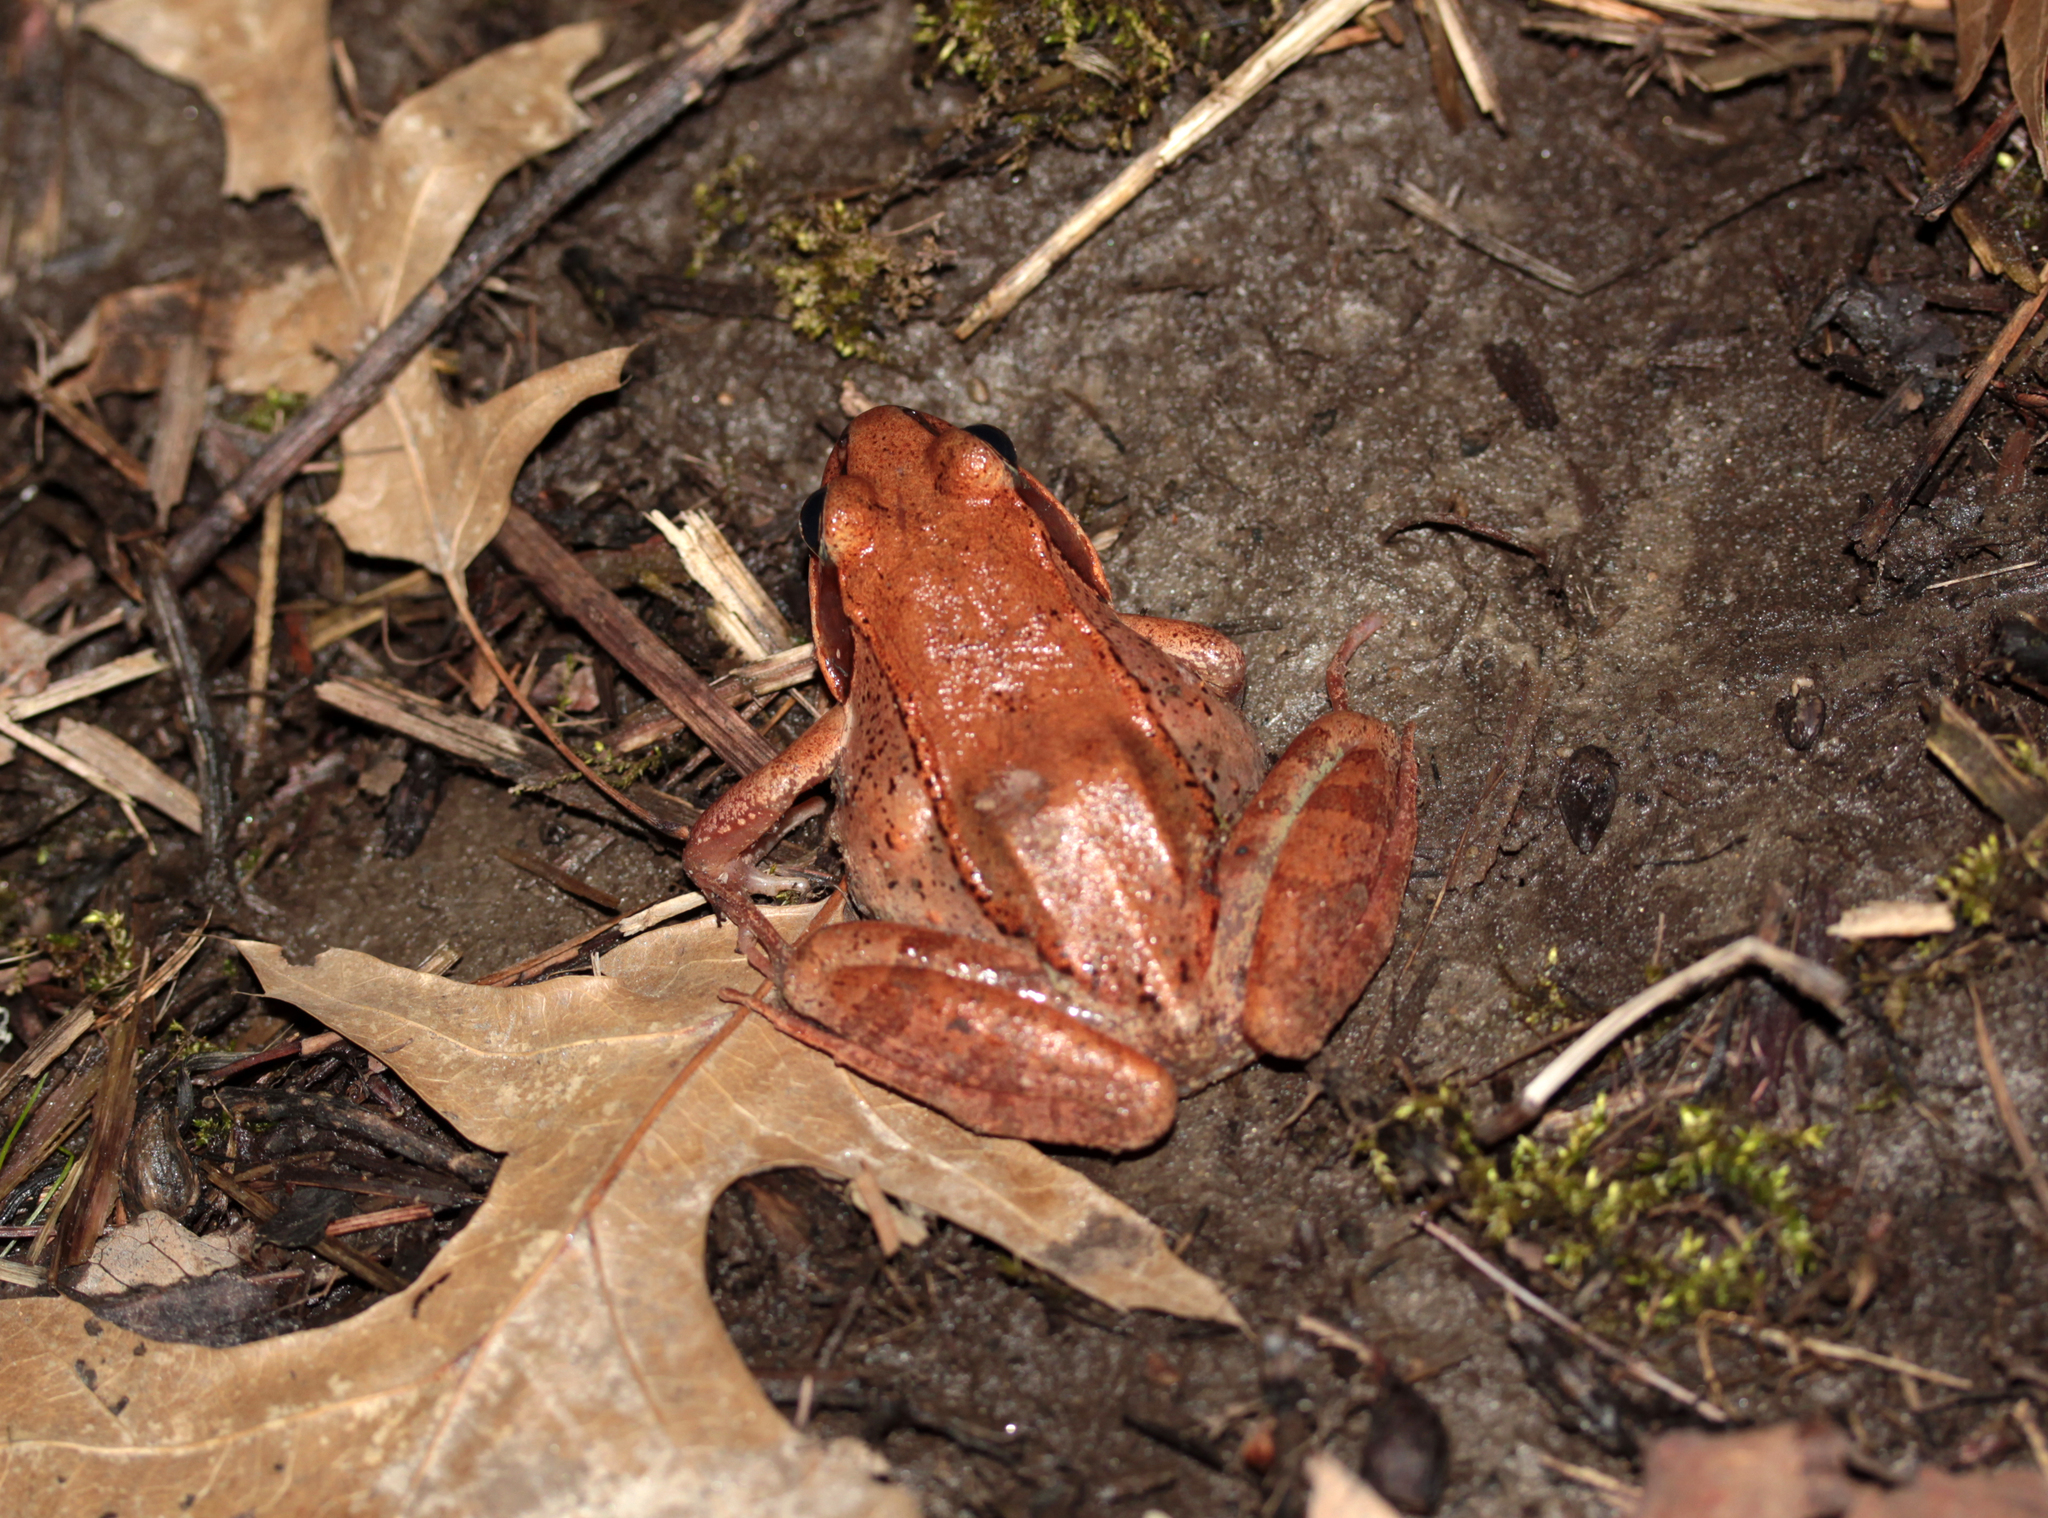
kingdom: Animalia
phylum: Chordata
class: Amphibia
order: Anura
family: Ranidae
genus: Lithobates
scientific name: Lithobates sylvaticus
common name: Wood frog
